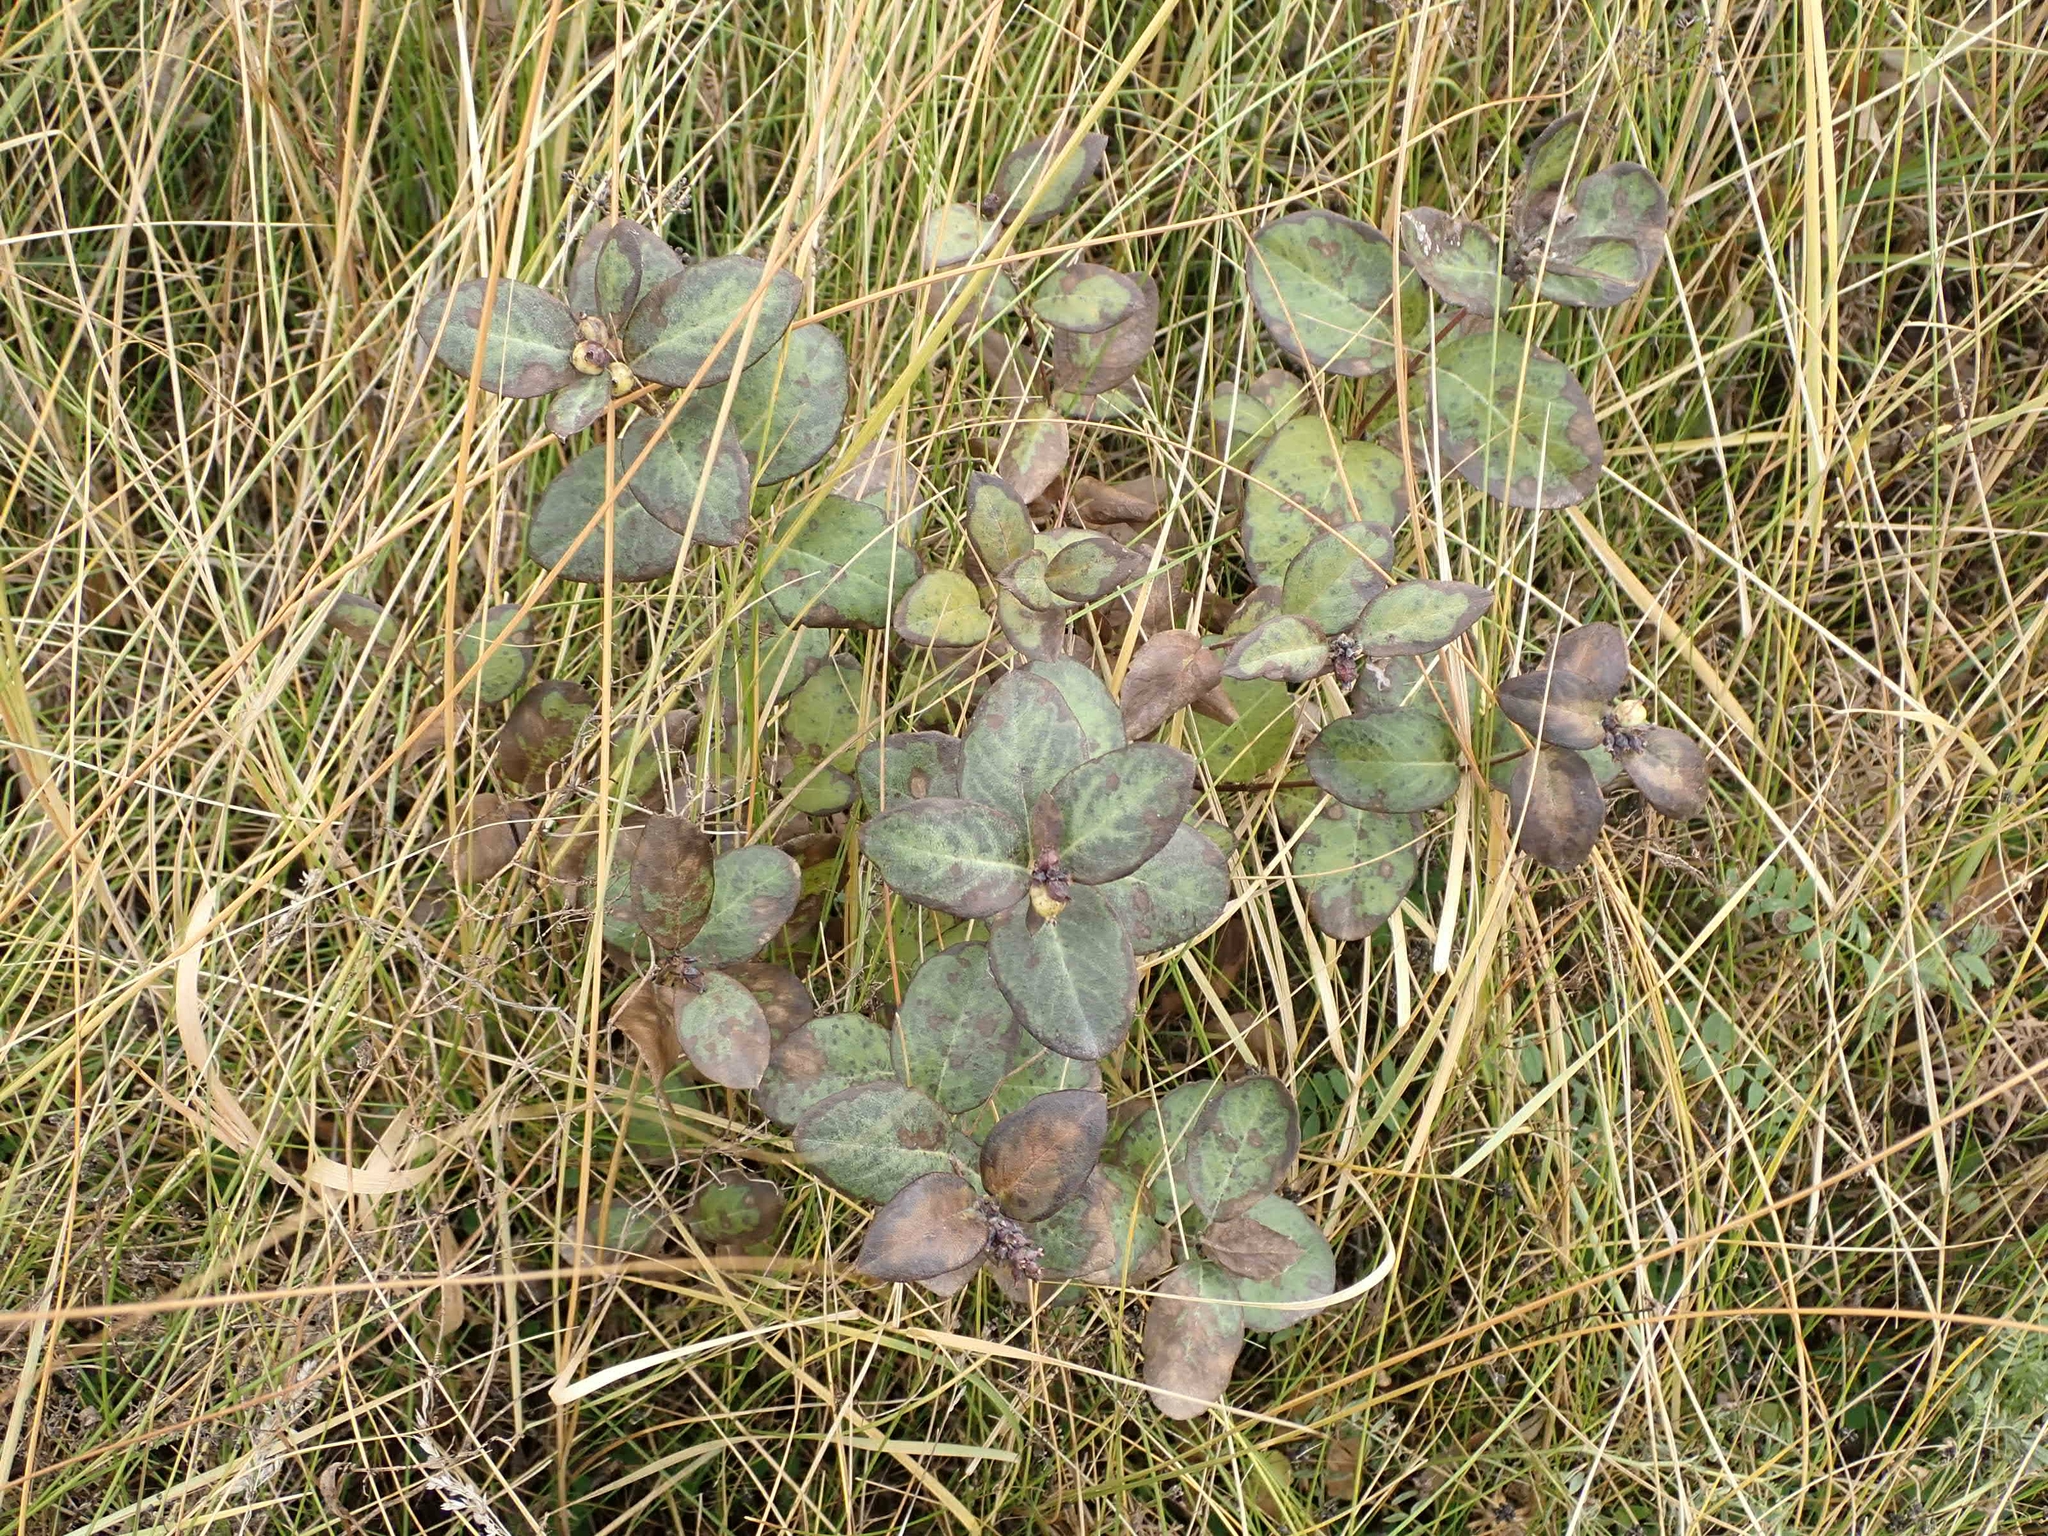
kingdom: Plantae
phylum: Tracheophyta
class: Magnoliopsida
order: Dipsacales
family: Caprifoliaceae
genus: Symphoricarpos
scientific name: Symphoricarpos occidentalis
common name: Wolfberry
